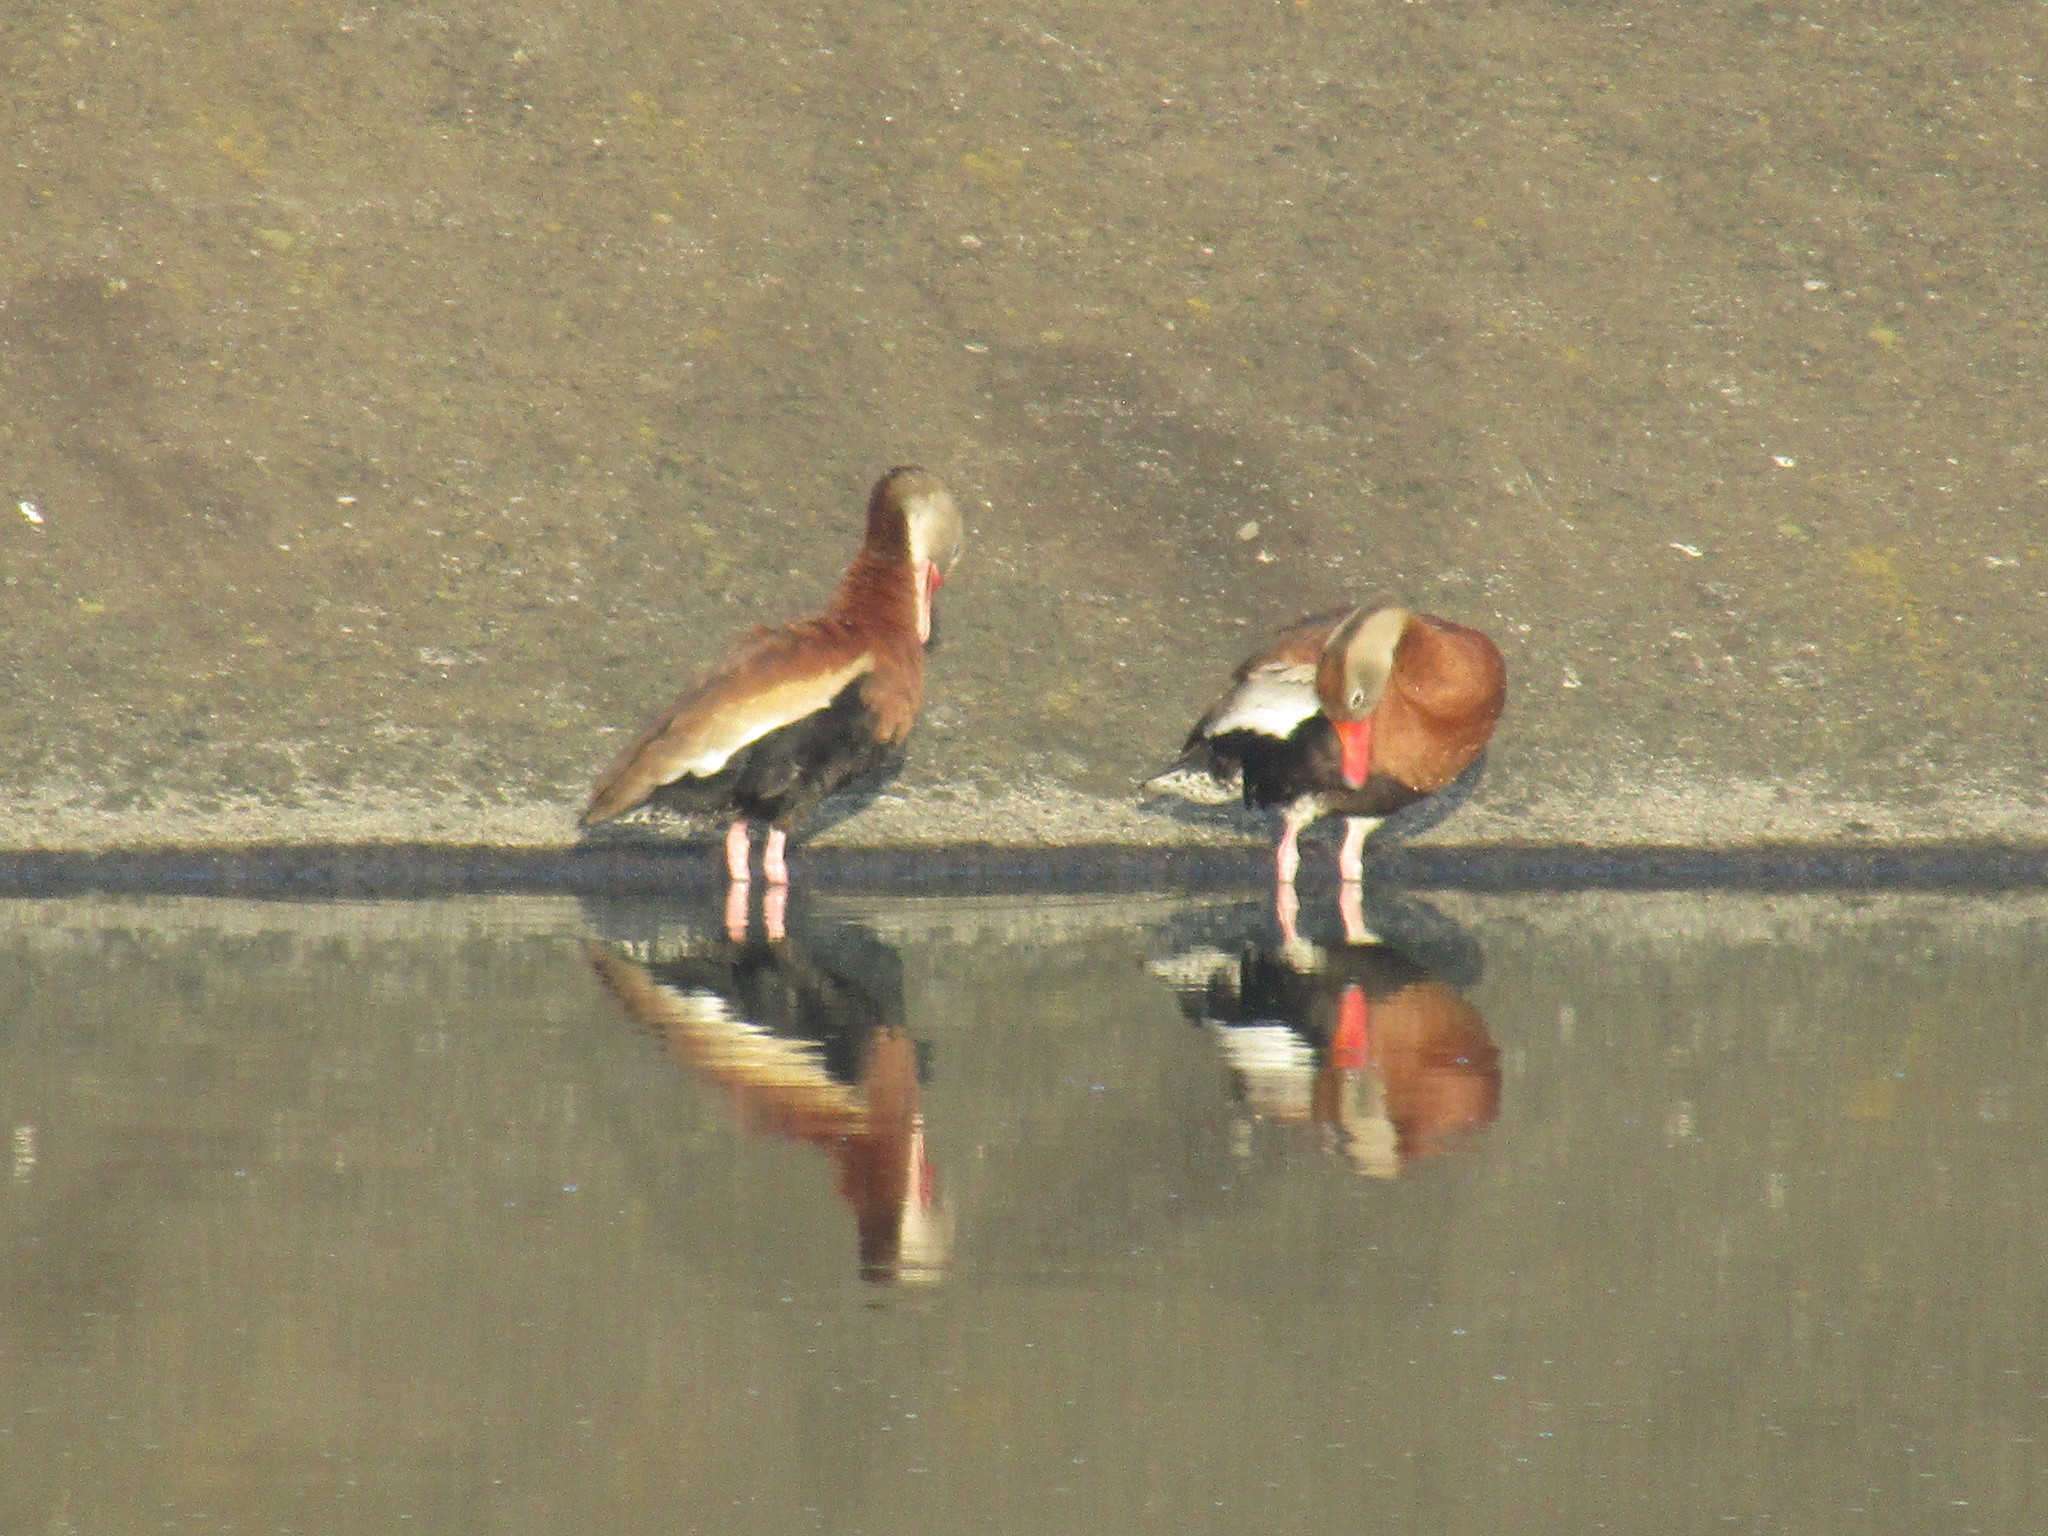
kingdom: Animalia
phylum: Chordata
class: Aves
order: Anseriformes
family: Anatidae
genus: Dendrocygna
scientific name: Dendrocygna autumnalis
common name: Black-bellied whistling duck
